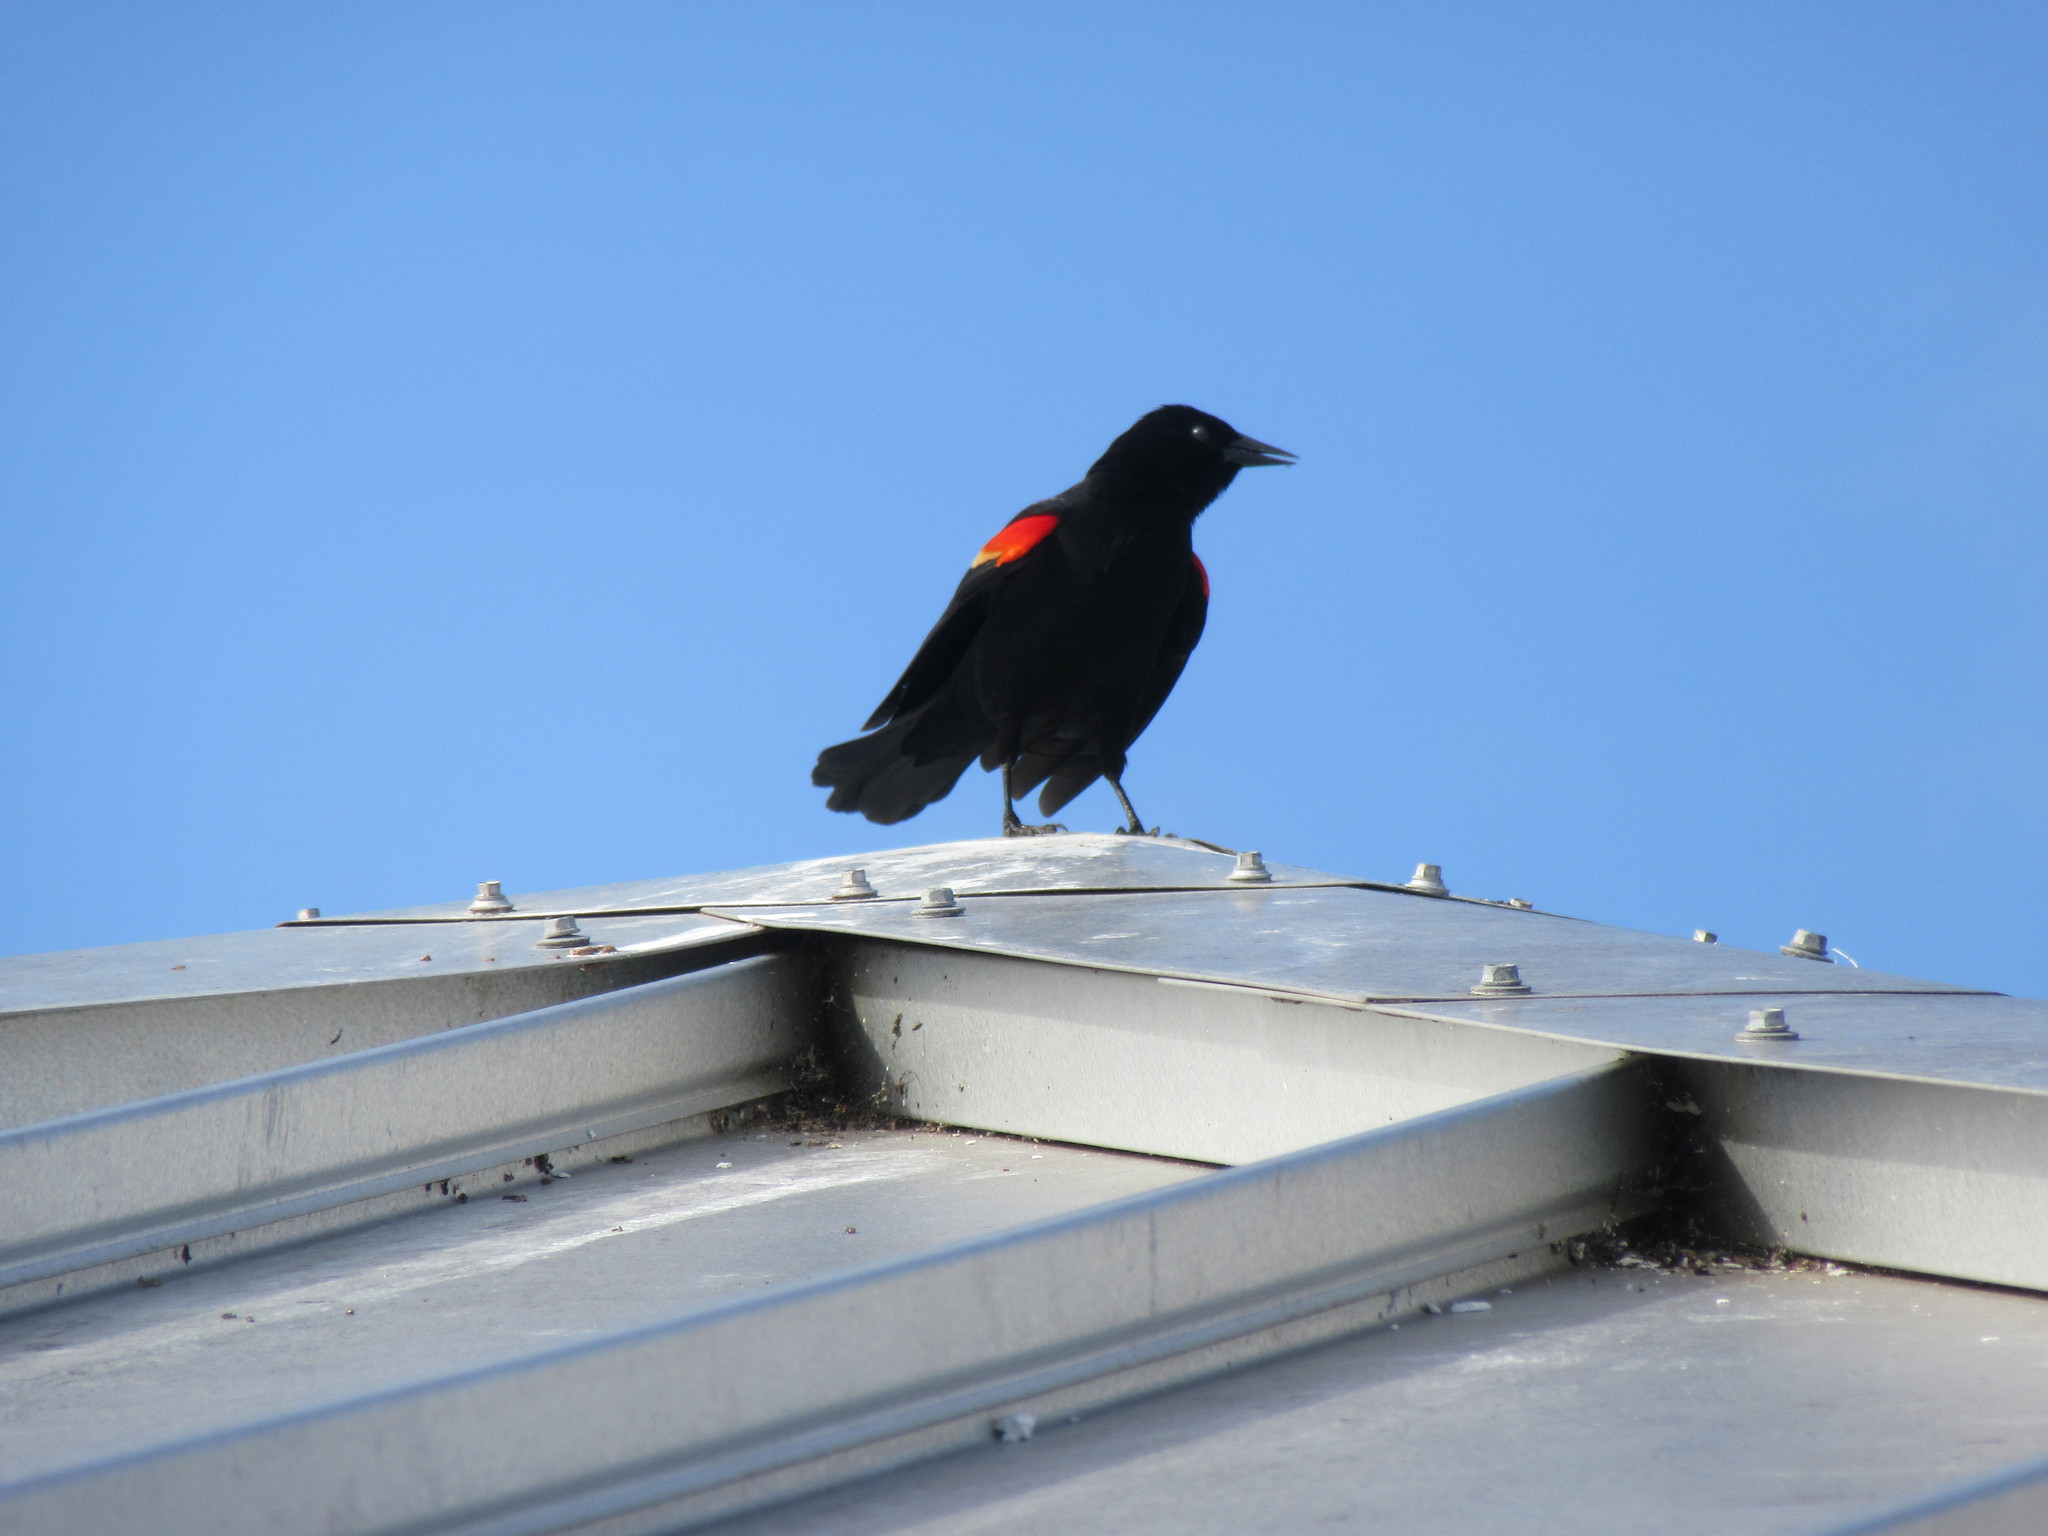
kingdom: Animalia
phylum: Chordata
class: Aves
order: Passeriformes
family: Icteridae
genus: Agelaius
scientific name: Agelaius phoeniceus
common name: Red-winged blackbird
